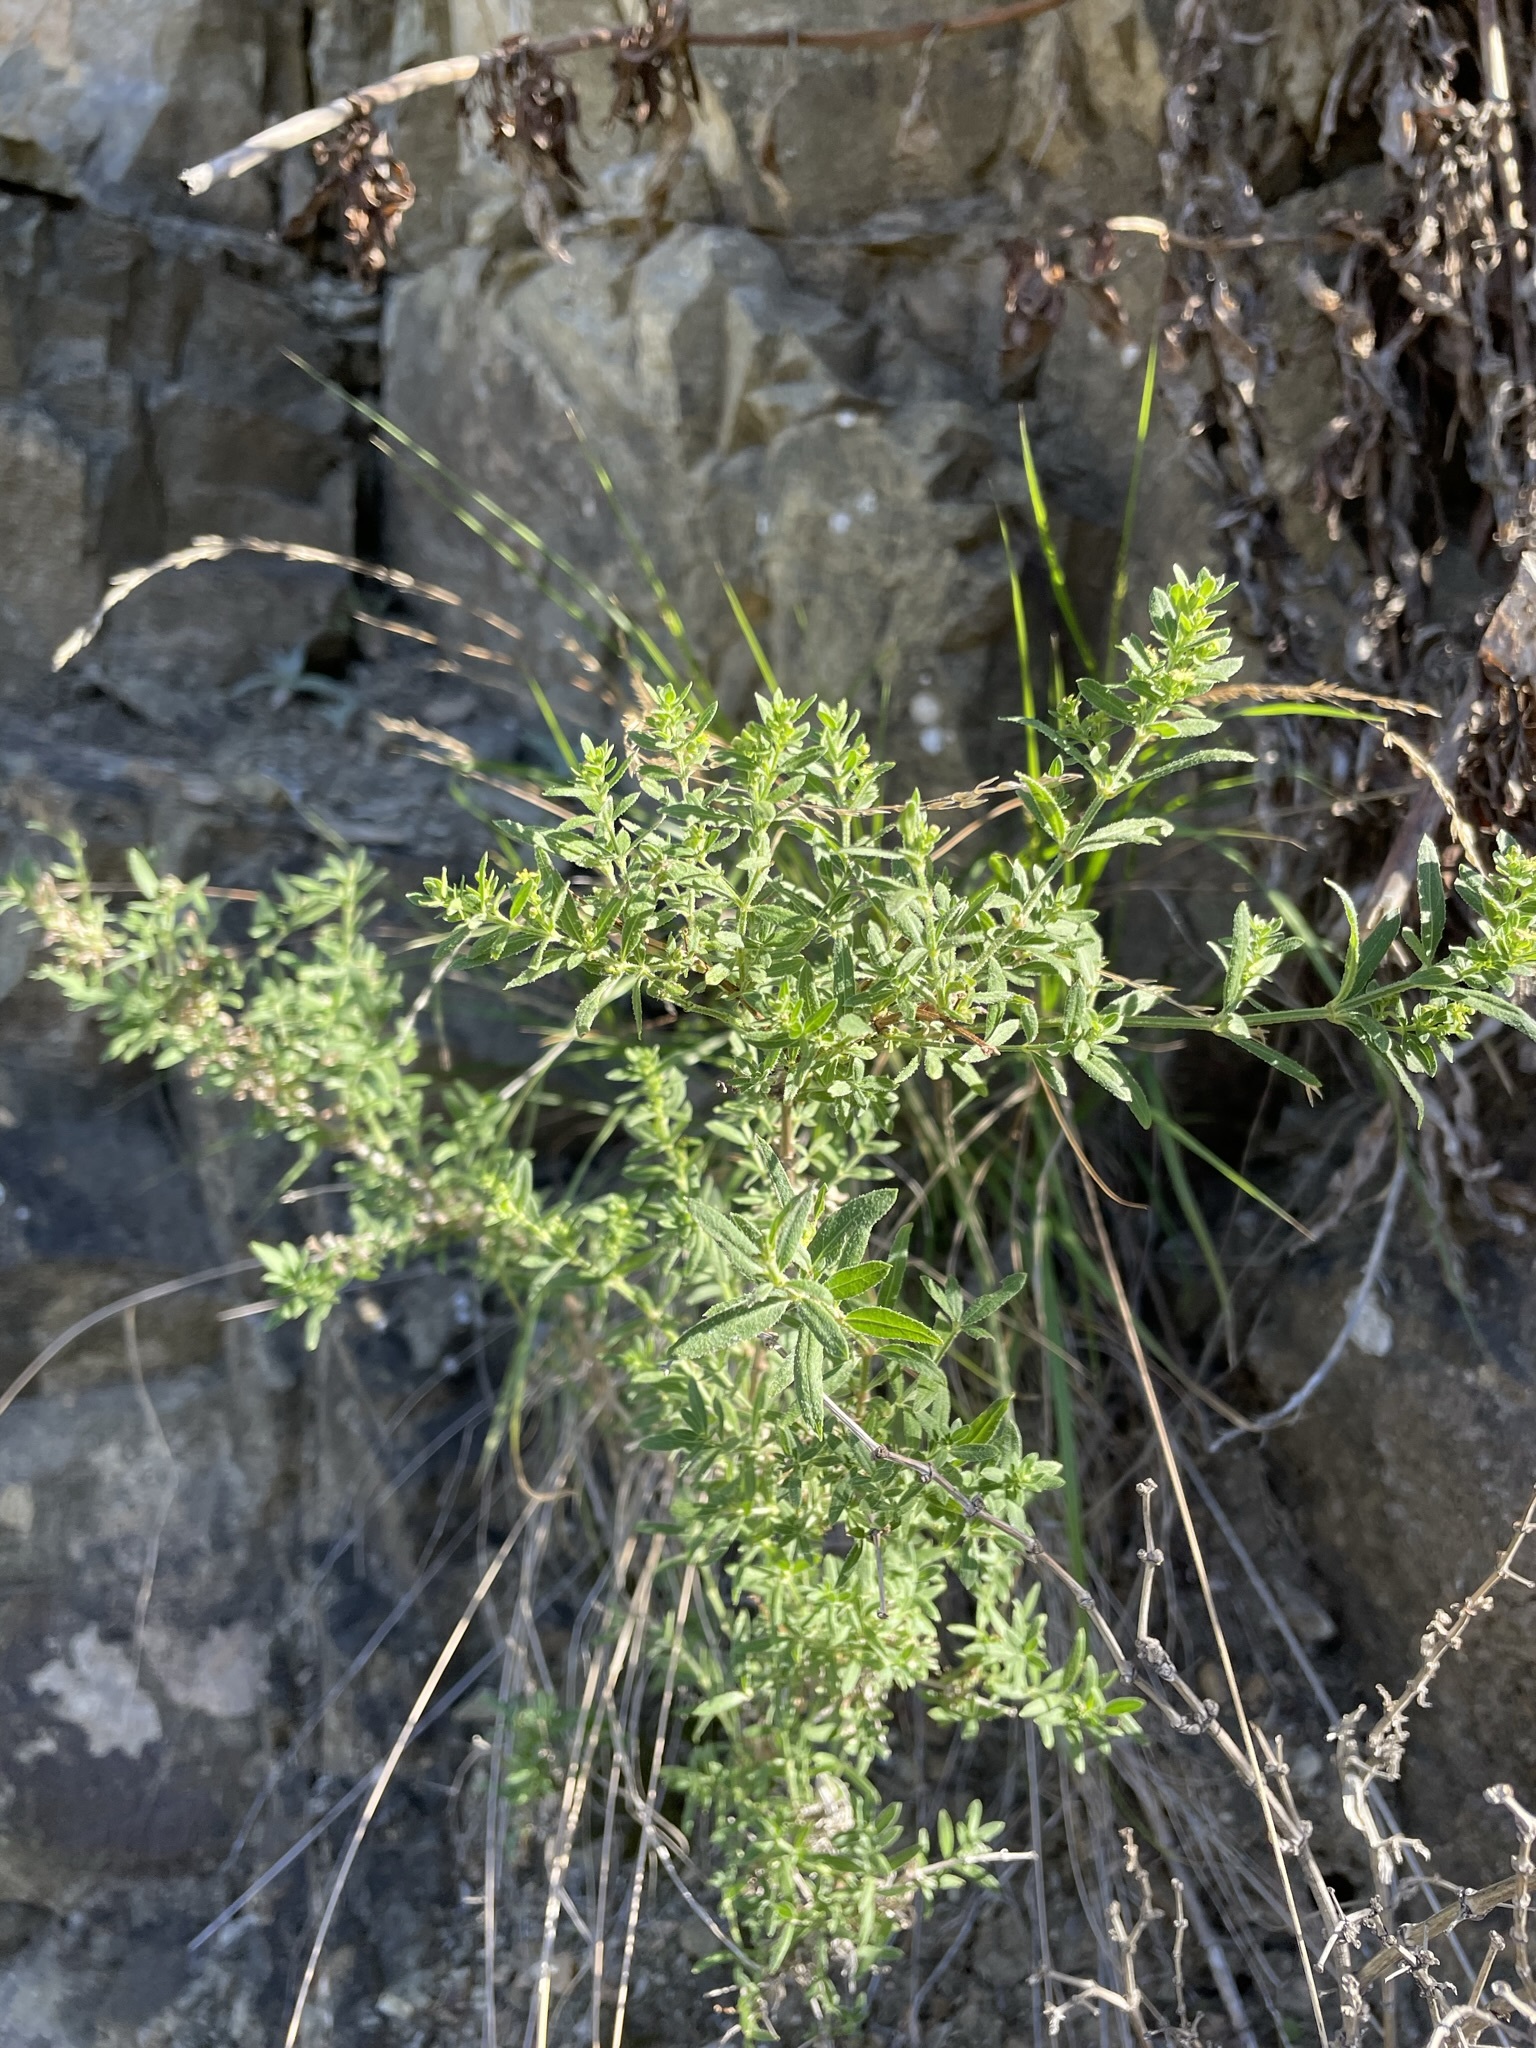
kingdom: Plantae
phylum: Tracheophyta
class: Magnoliopsida
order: Gentianales
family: Rubiaceae
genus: Galium
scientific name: Galium catalinense
